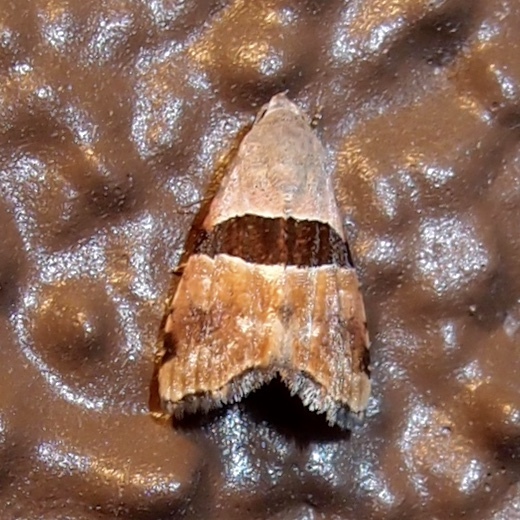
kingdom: Animalia
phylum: Arthropoda
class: Insecta
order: Lepidoptera
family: Noctuidae
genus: Cobubatha
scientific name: Cobubatha lixiva
